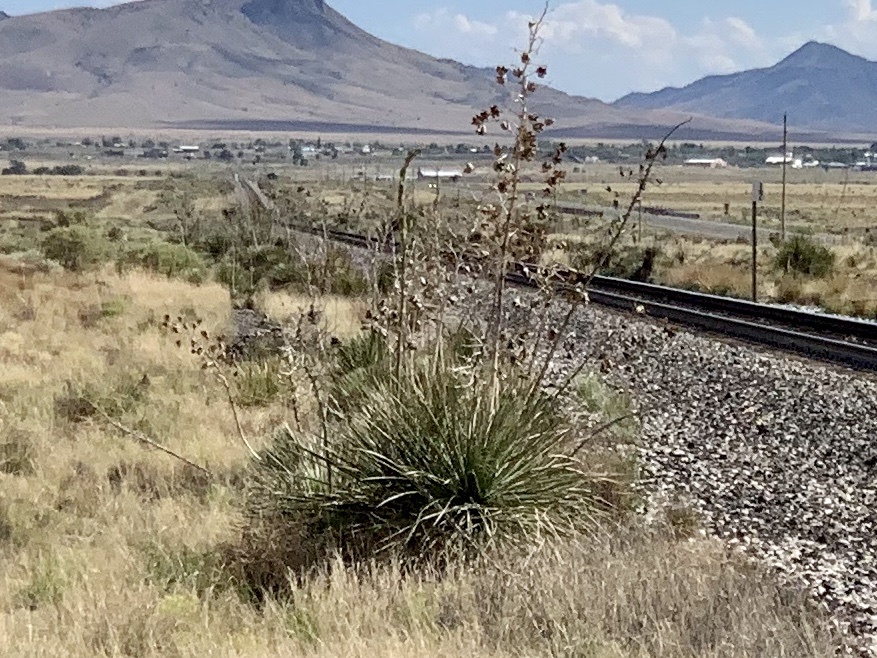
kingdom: Plantae
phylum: Tracheophyta
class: Liliopsida
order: Asparagales
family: Asparagaceae
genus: Yucca
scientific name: Yucca elata
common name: Palmella
